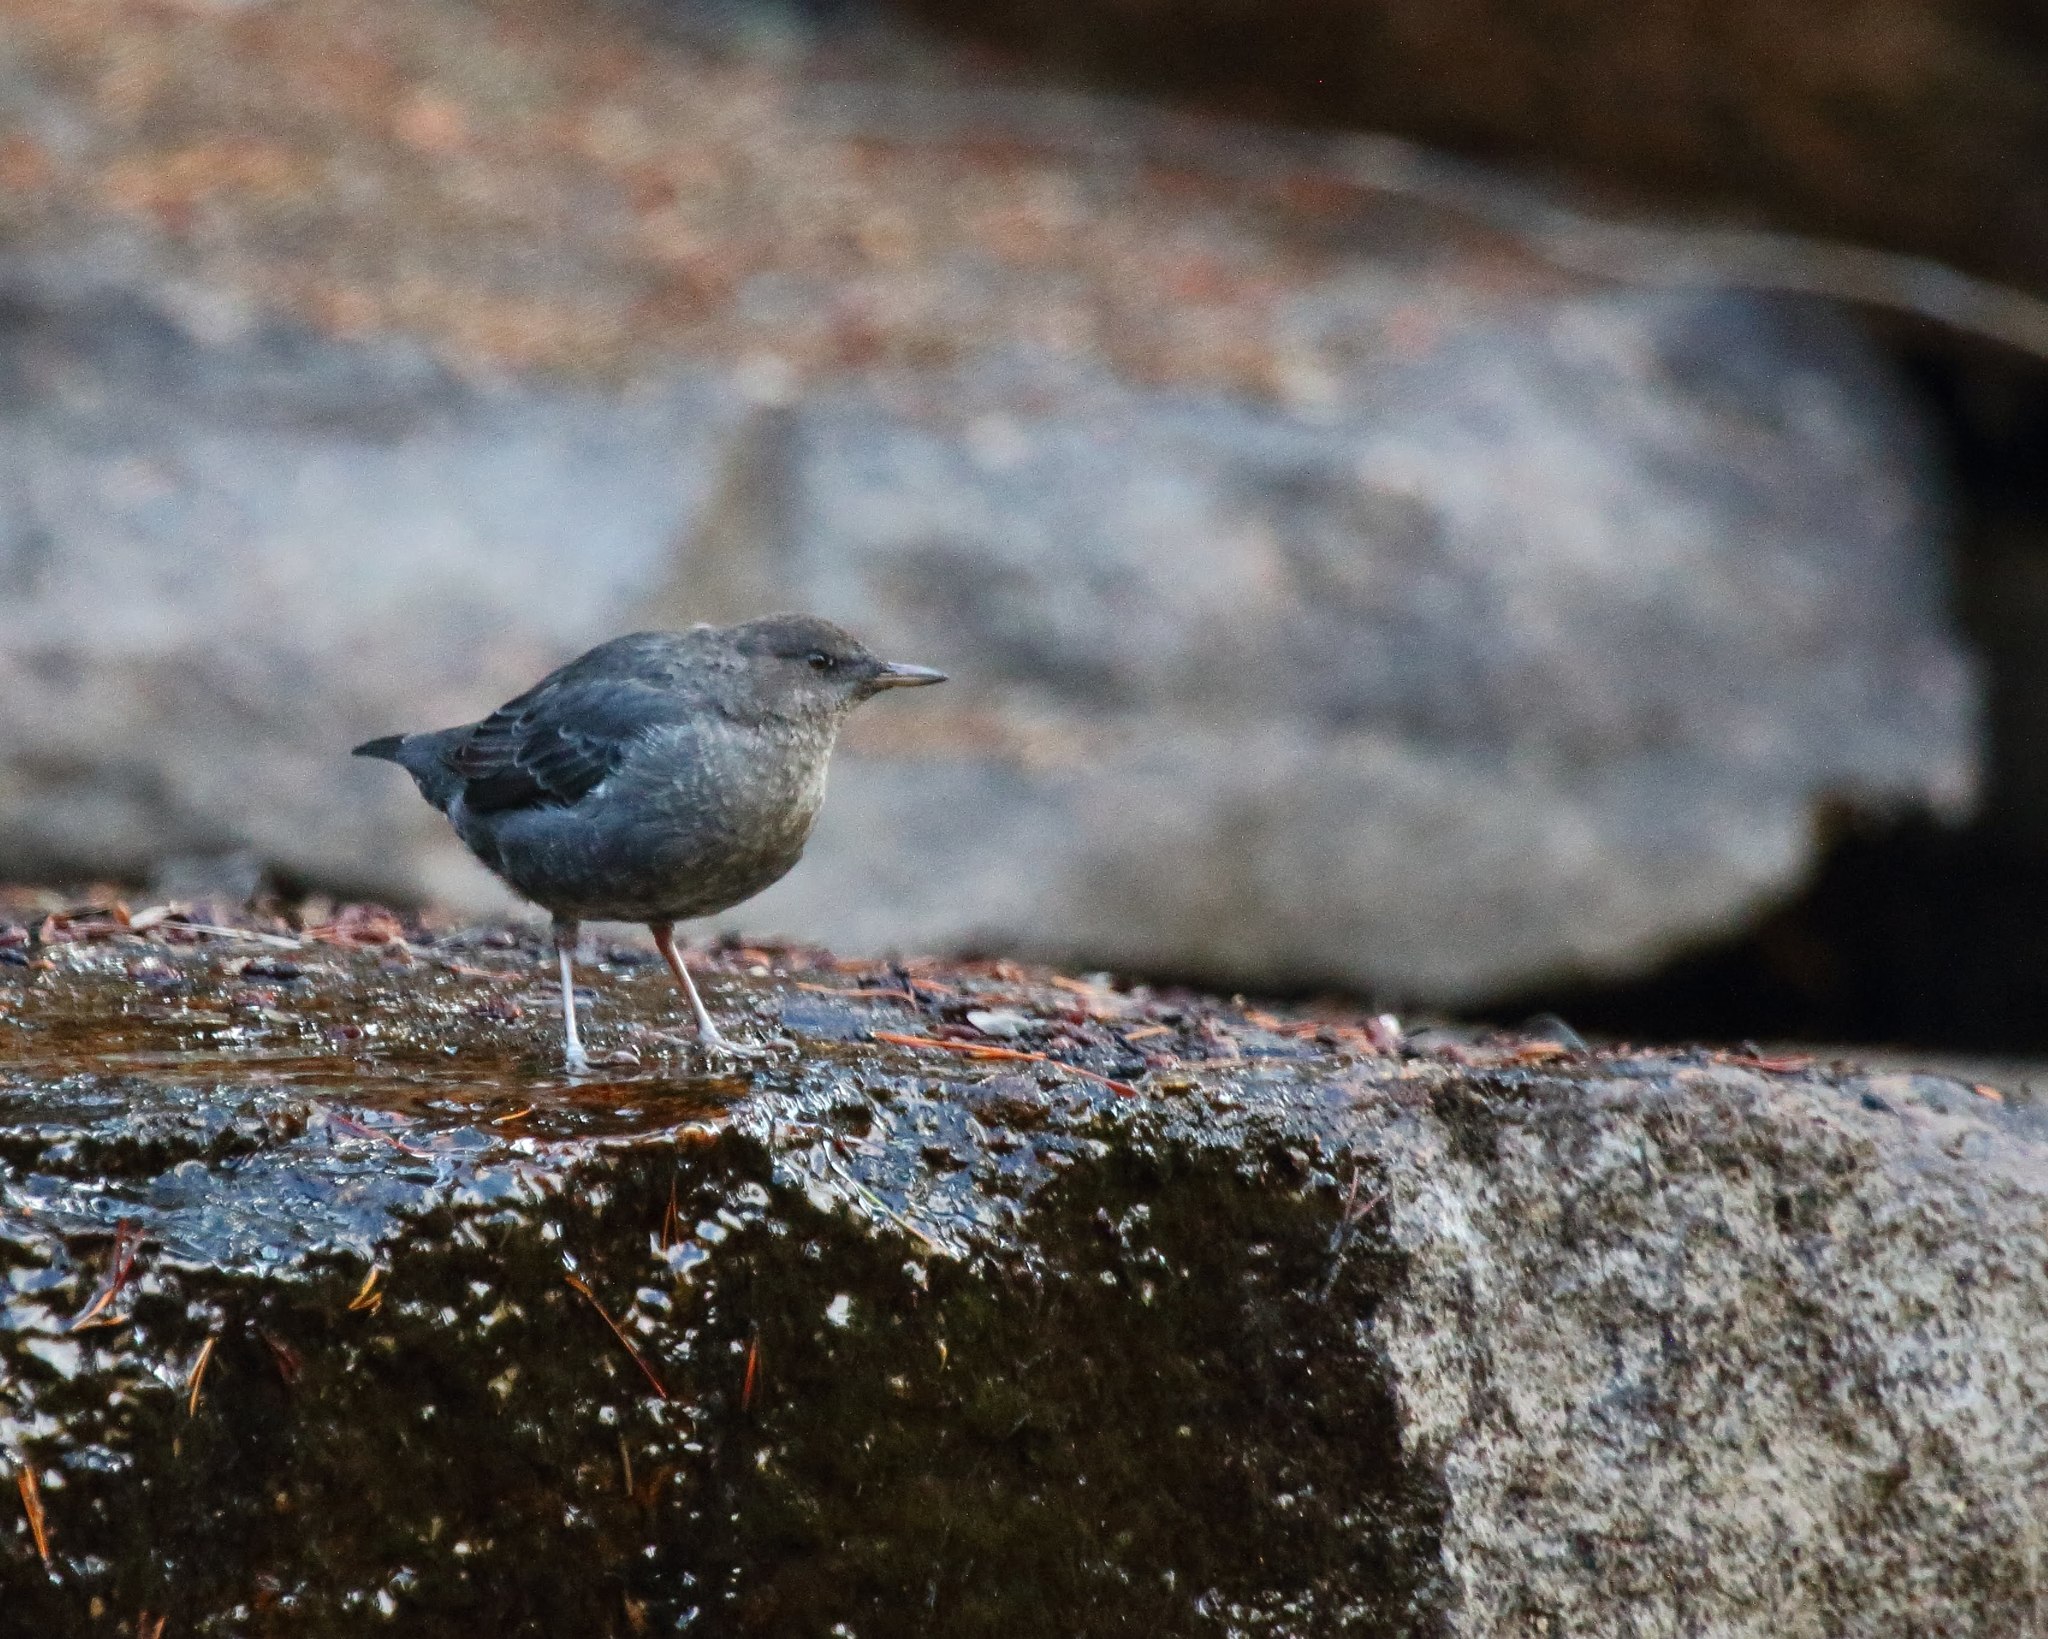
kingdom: Animalia
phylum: Chordata
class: Aves
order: Passeriformes
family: Cinclidae
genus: Cinclus
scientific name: Cinclus mexicanus
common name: American dipper
